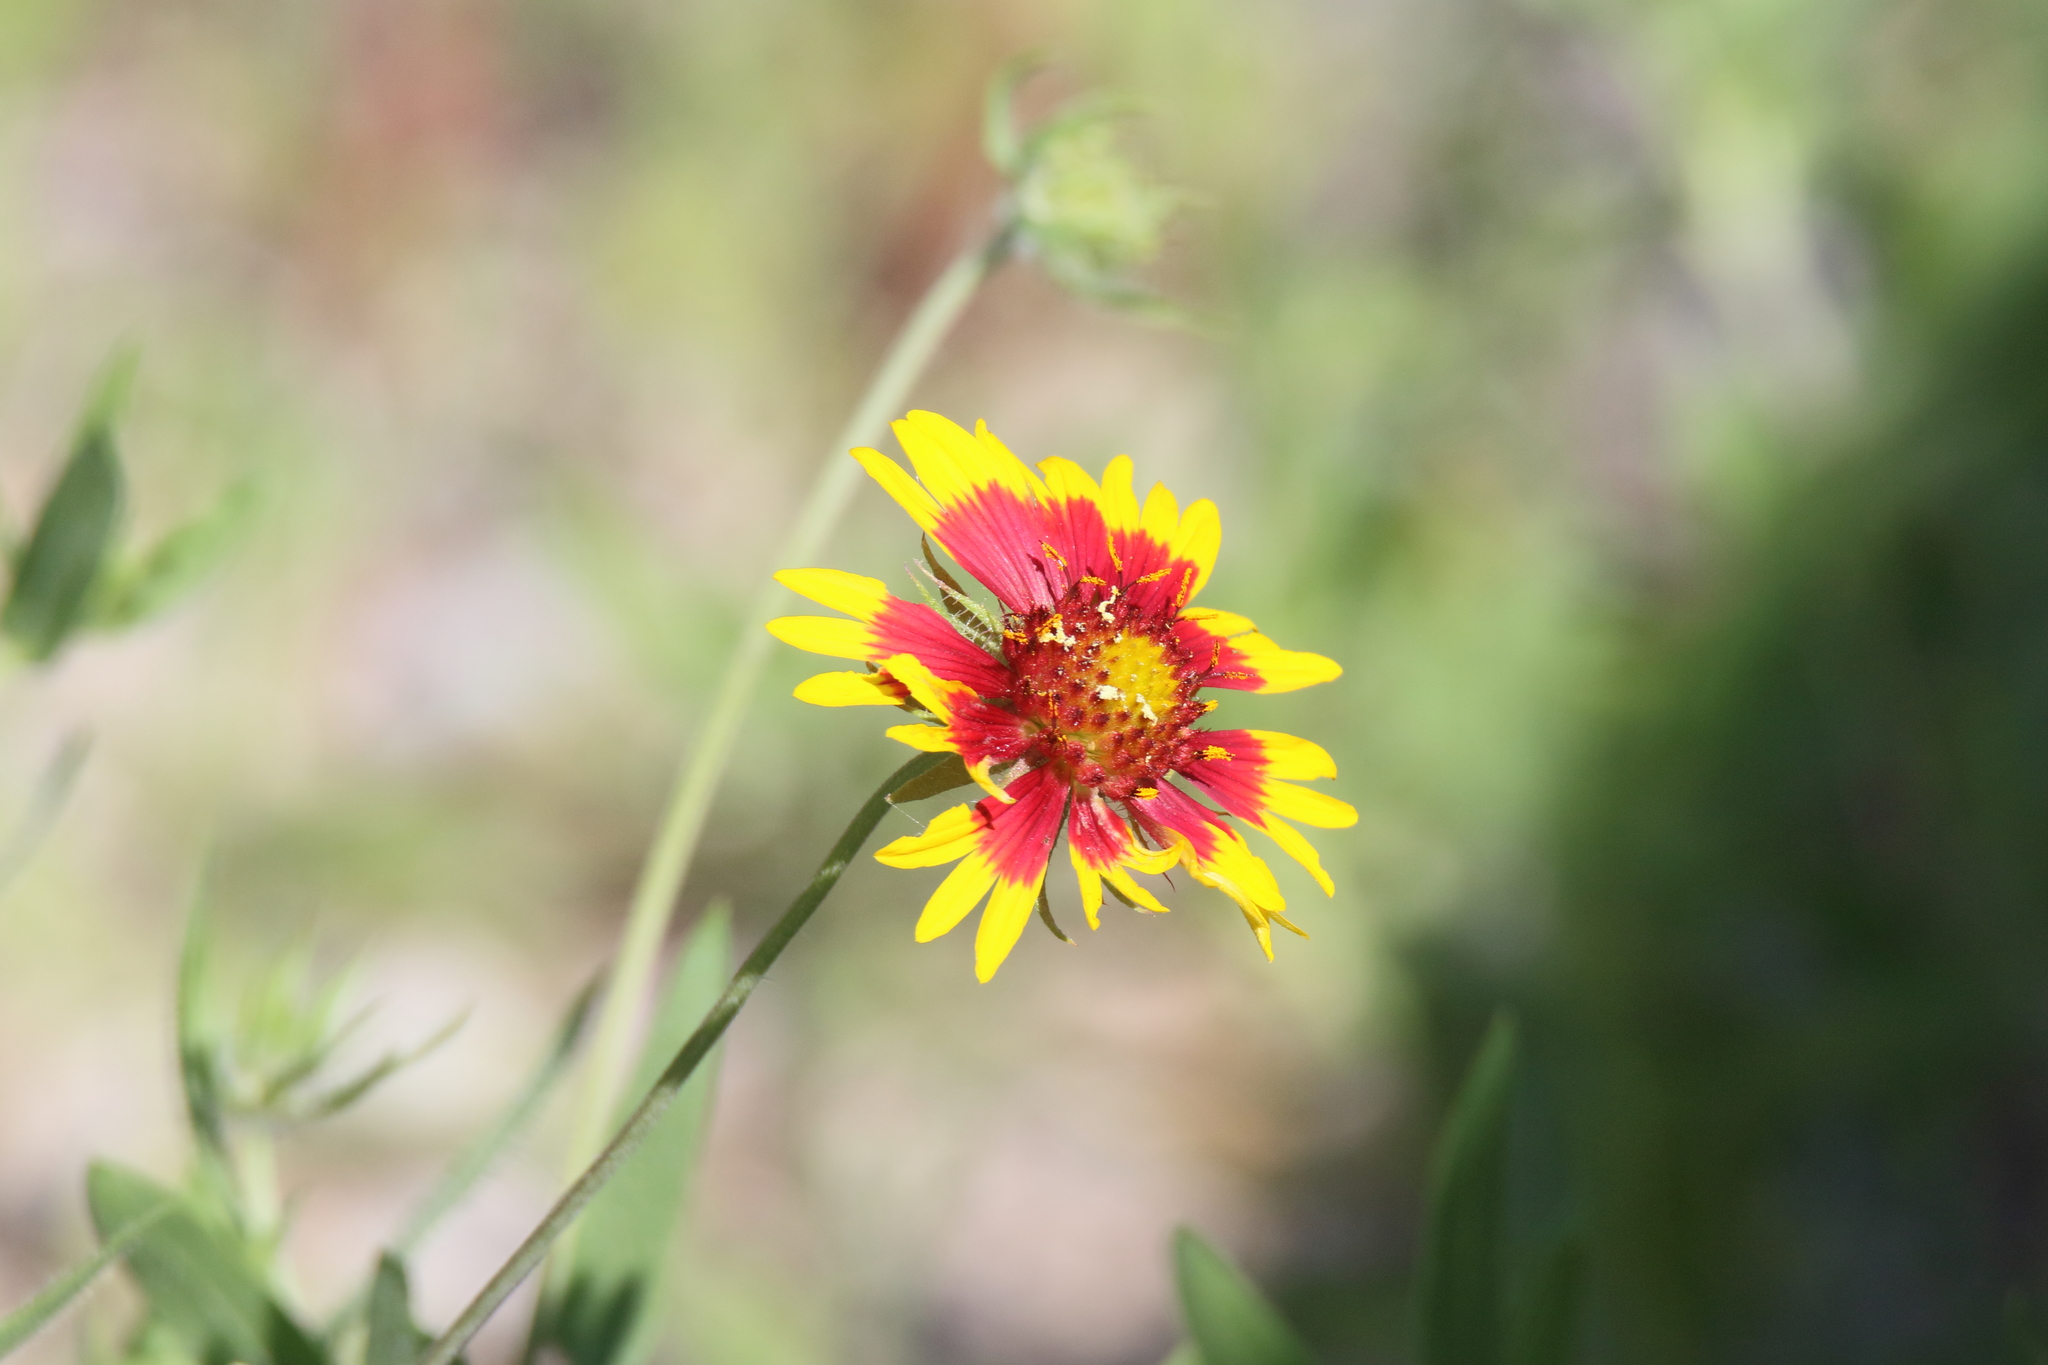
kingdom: Plantae
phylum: Tracheophyta
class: Magnoliopsida
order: Asterales
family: Asteraceae
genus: Gaillardia
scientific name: Gaillardia pulchella
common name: Firewheel
